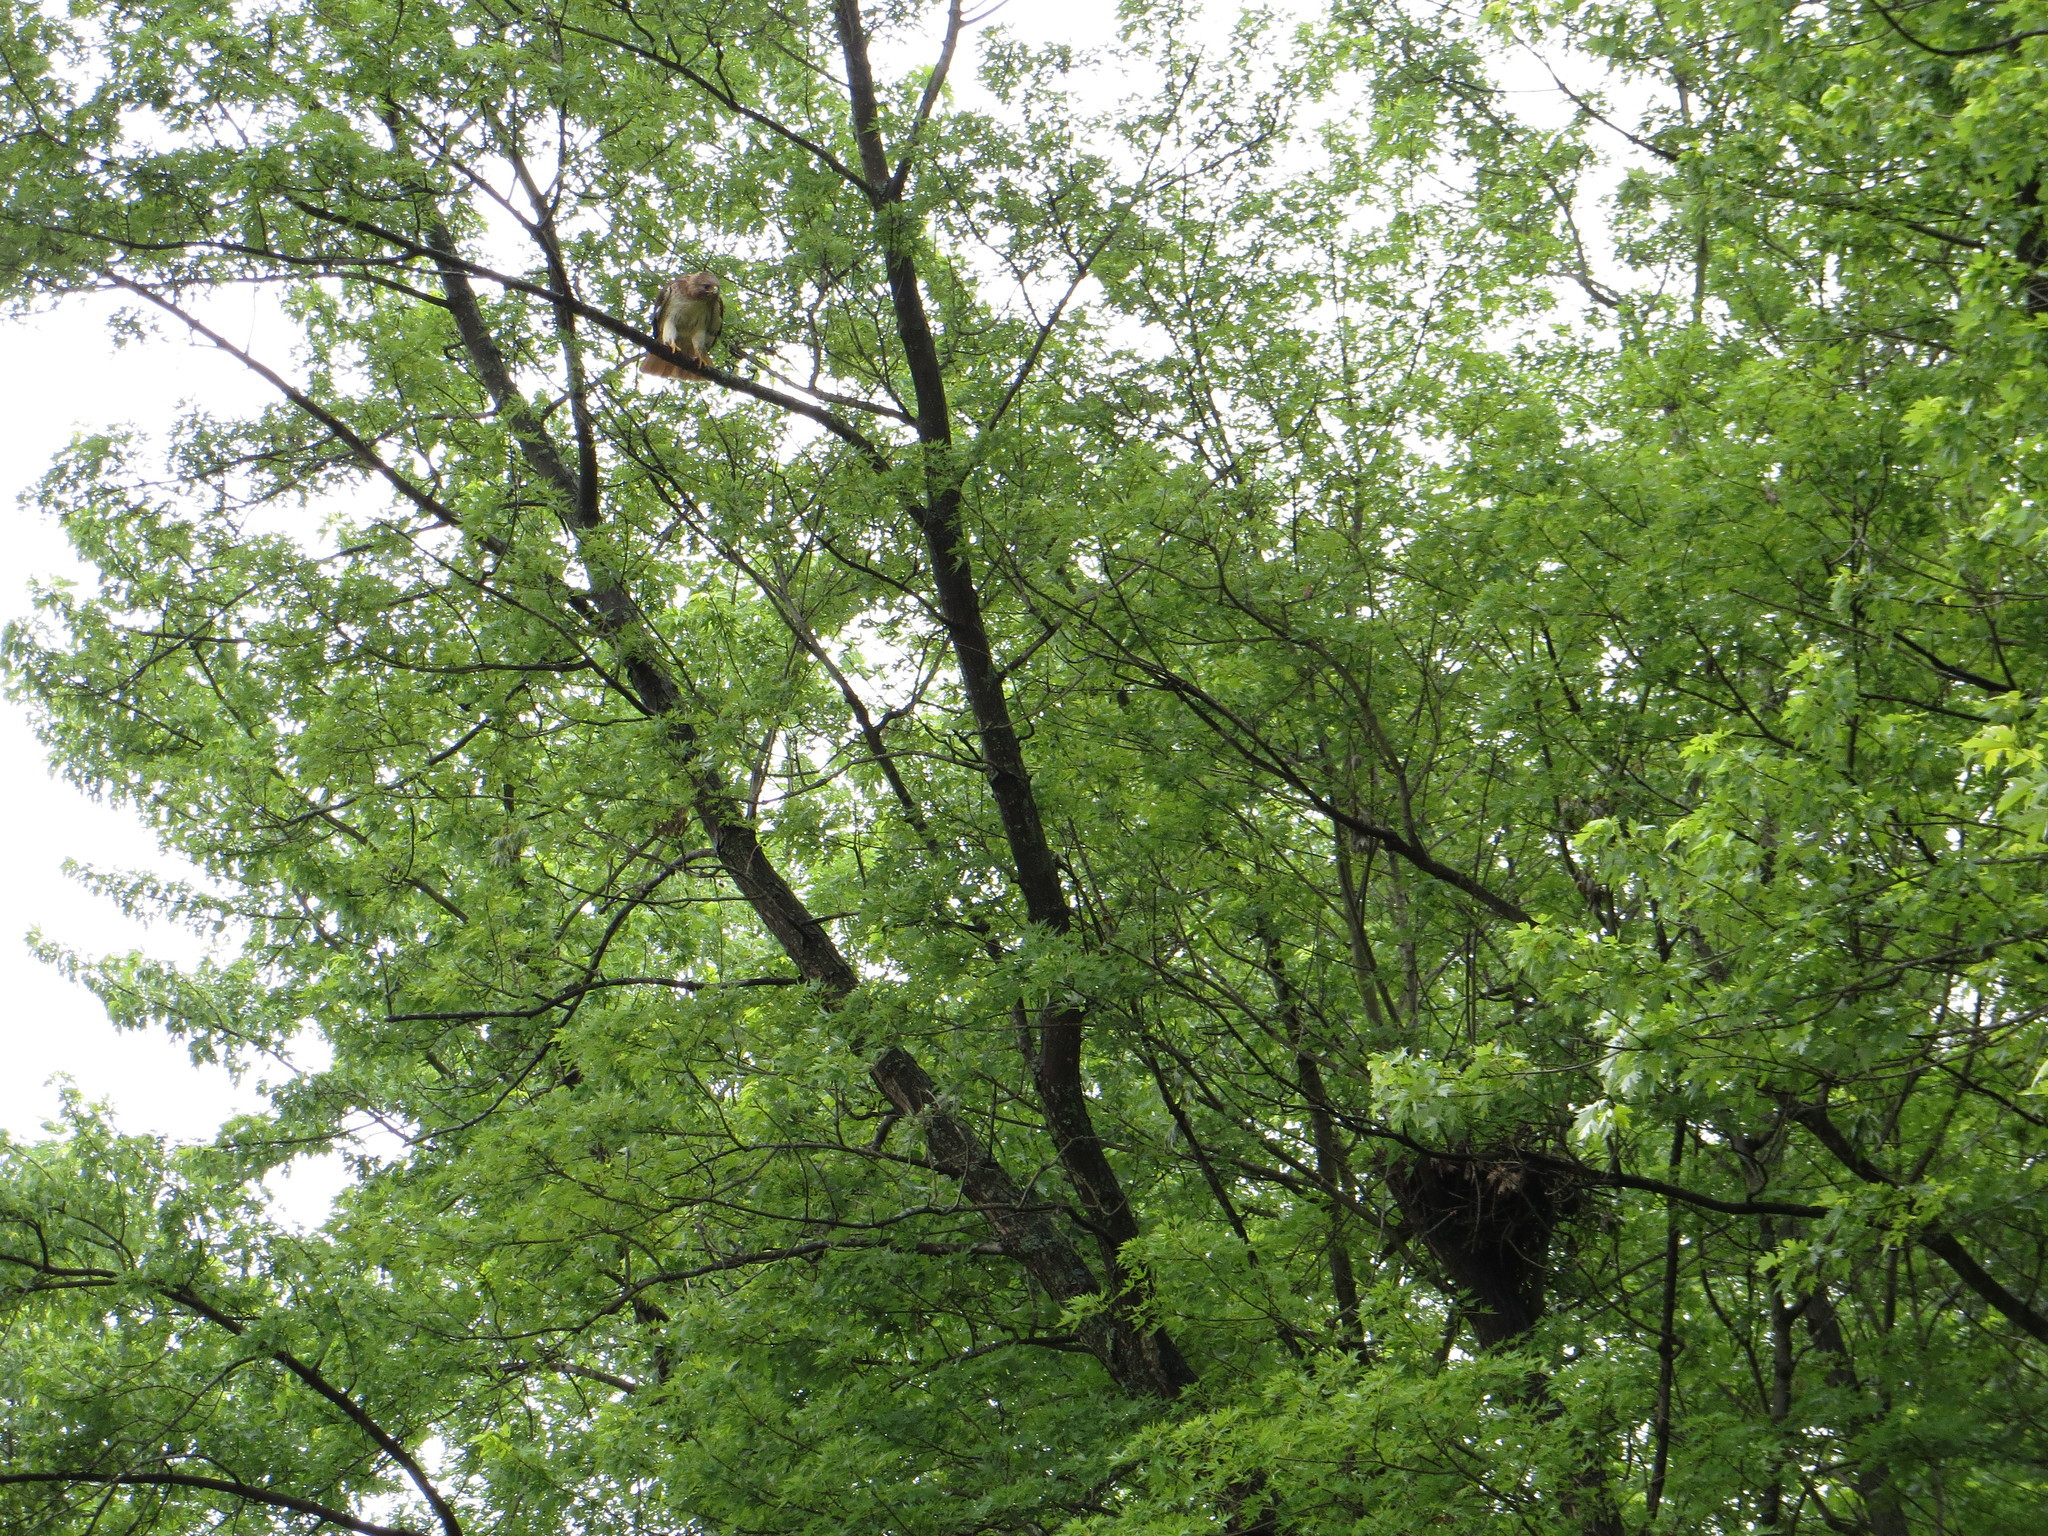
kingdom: Animalia
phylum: Chordata
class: Aves
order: Accipitriformes
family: Accipitridae
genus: Buteo
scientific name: Buteo jamaicensis
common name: Red-tailed hawk
